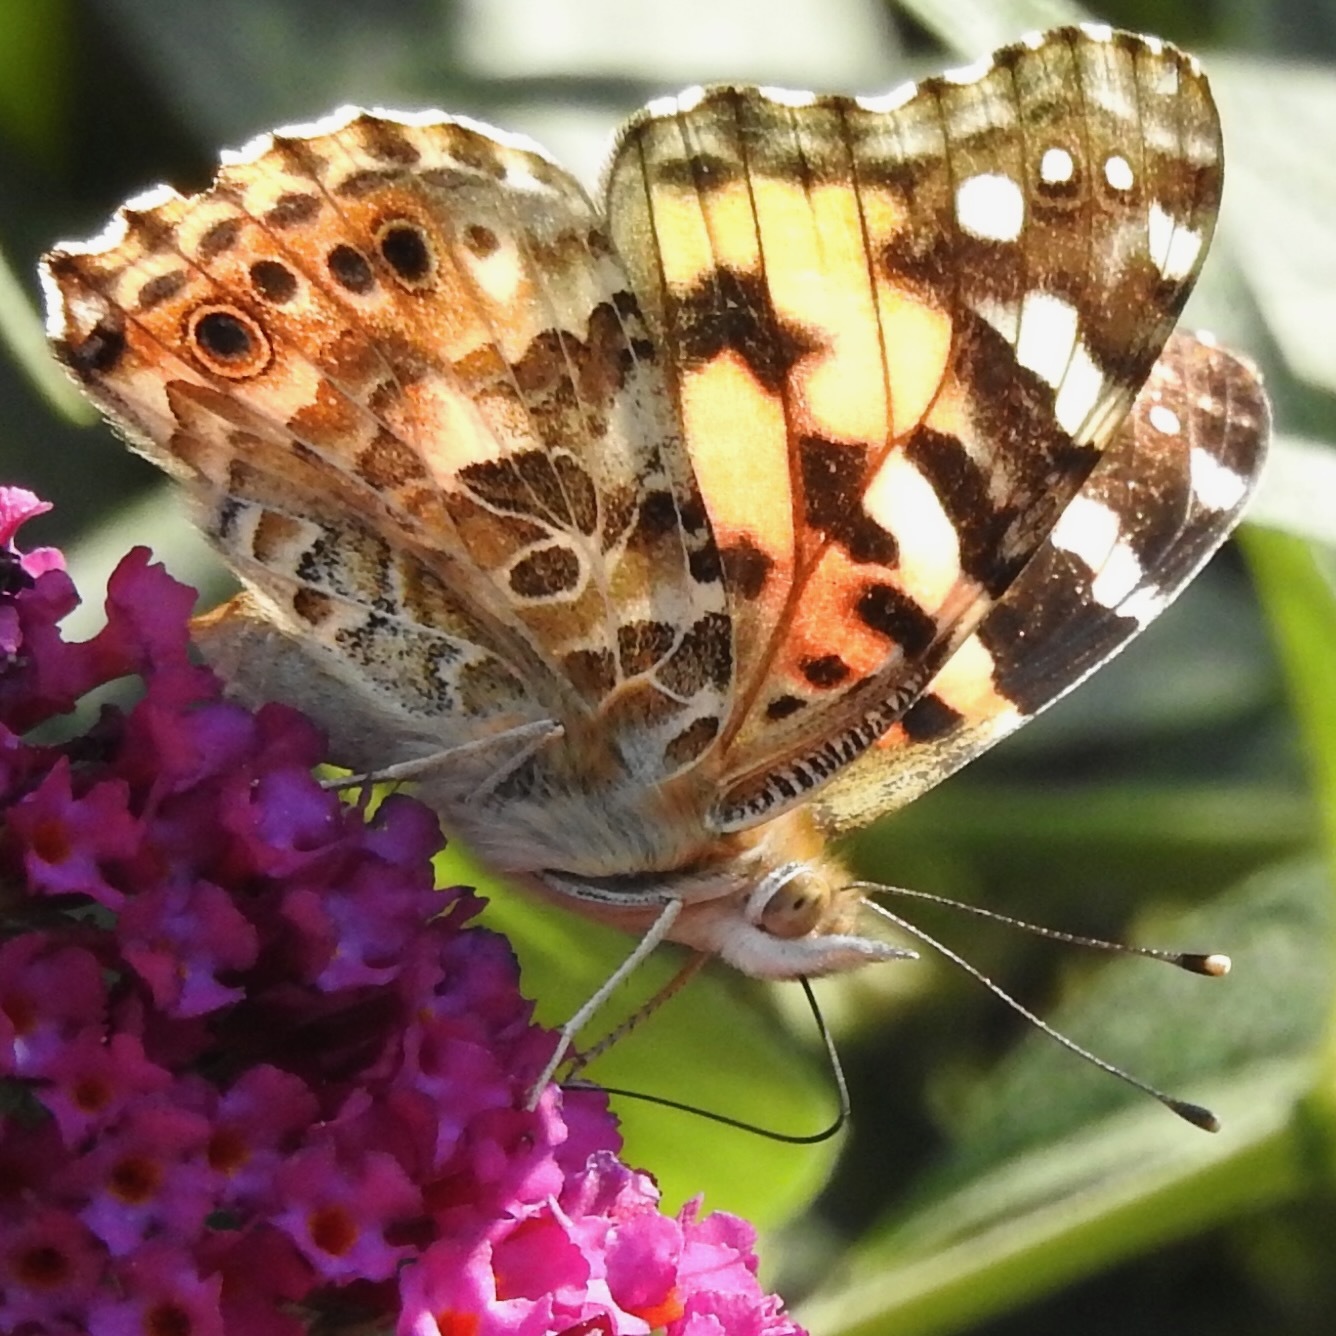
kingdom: Animalia
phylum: Arthropoda
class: Insecta
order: Lepidoptera
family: Nymphalidae
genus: Vanessa
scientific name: Vanessa cardui
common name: Painted lady
